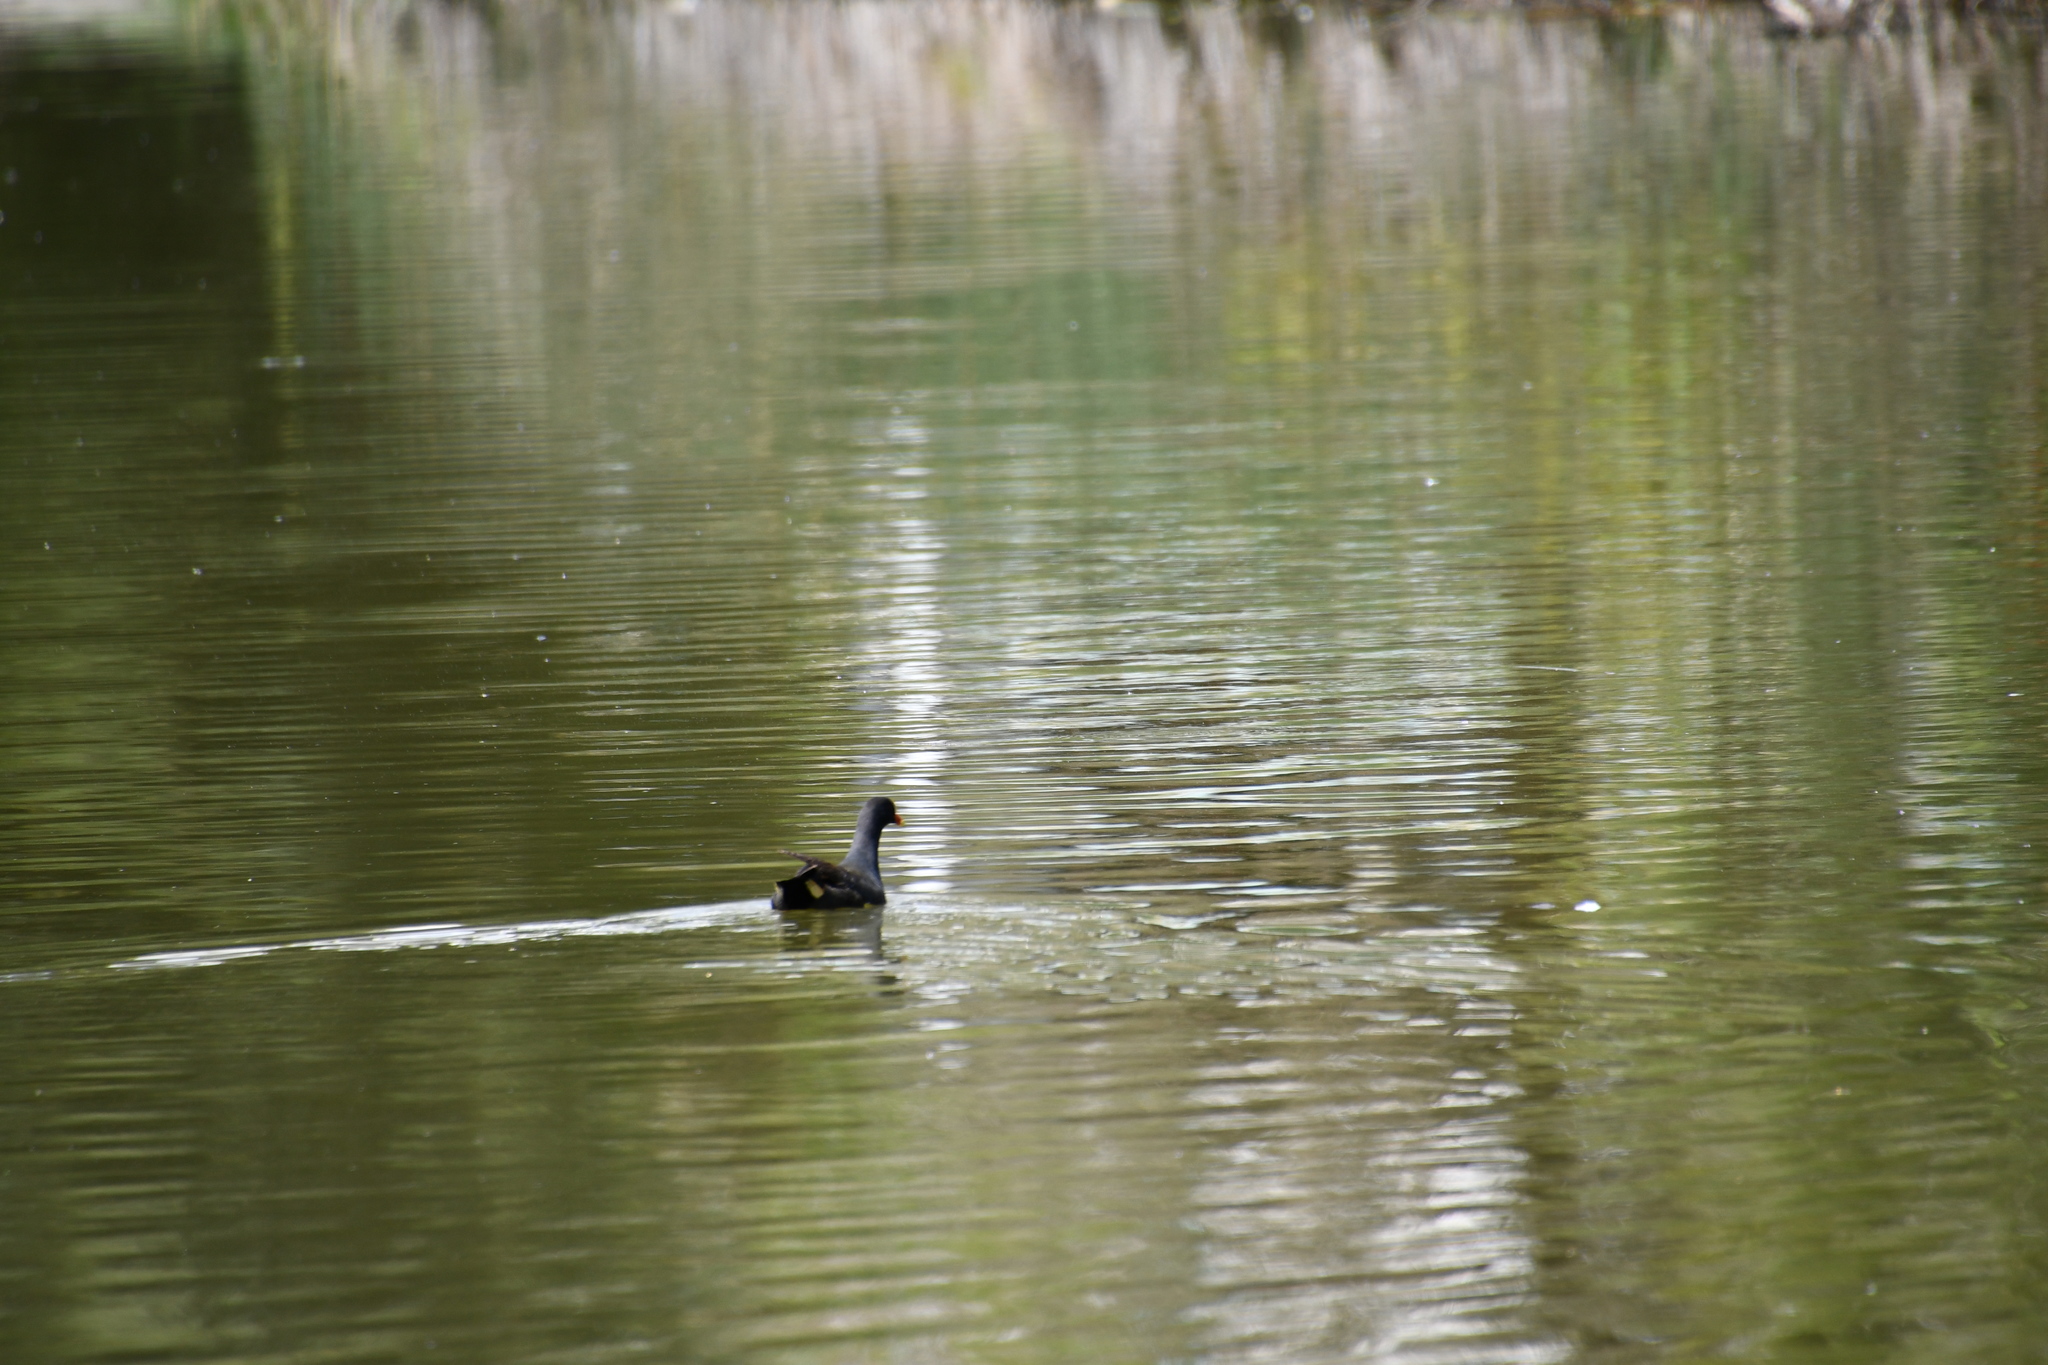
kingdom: Animalia
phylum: Chordata
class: Aves
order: Gruiformes
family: Rallidae
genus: Gallinula
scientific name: Gallinula tenebrosa
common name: Dusky moorhen
